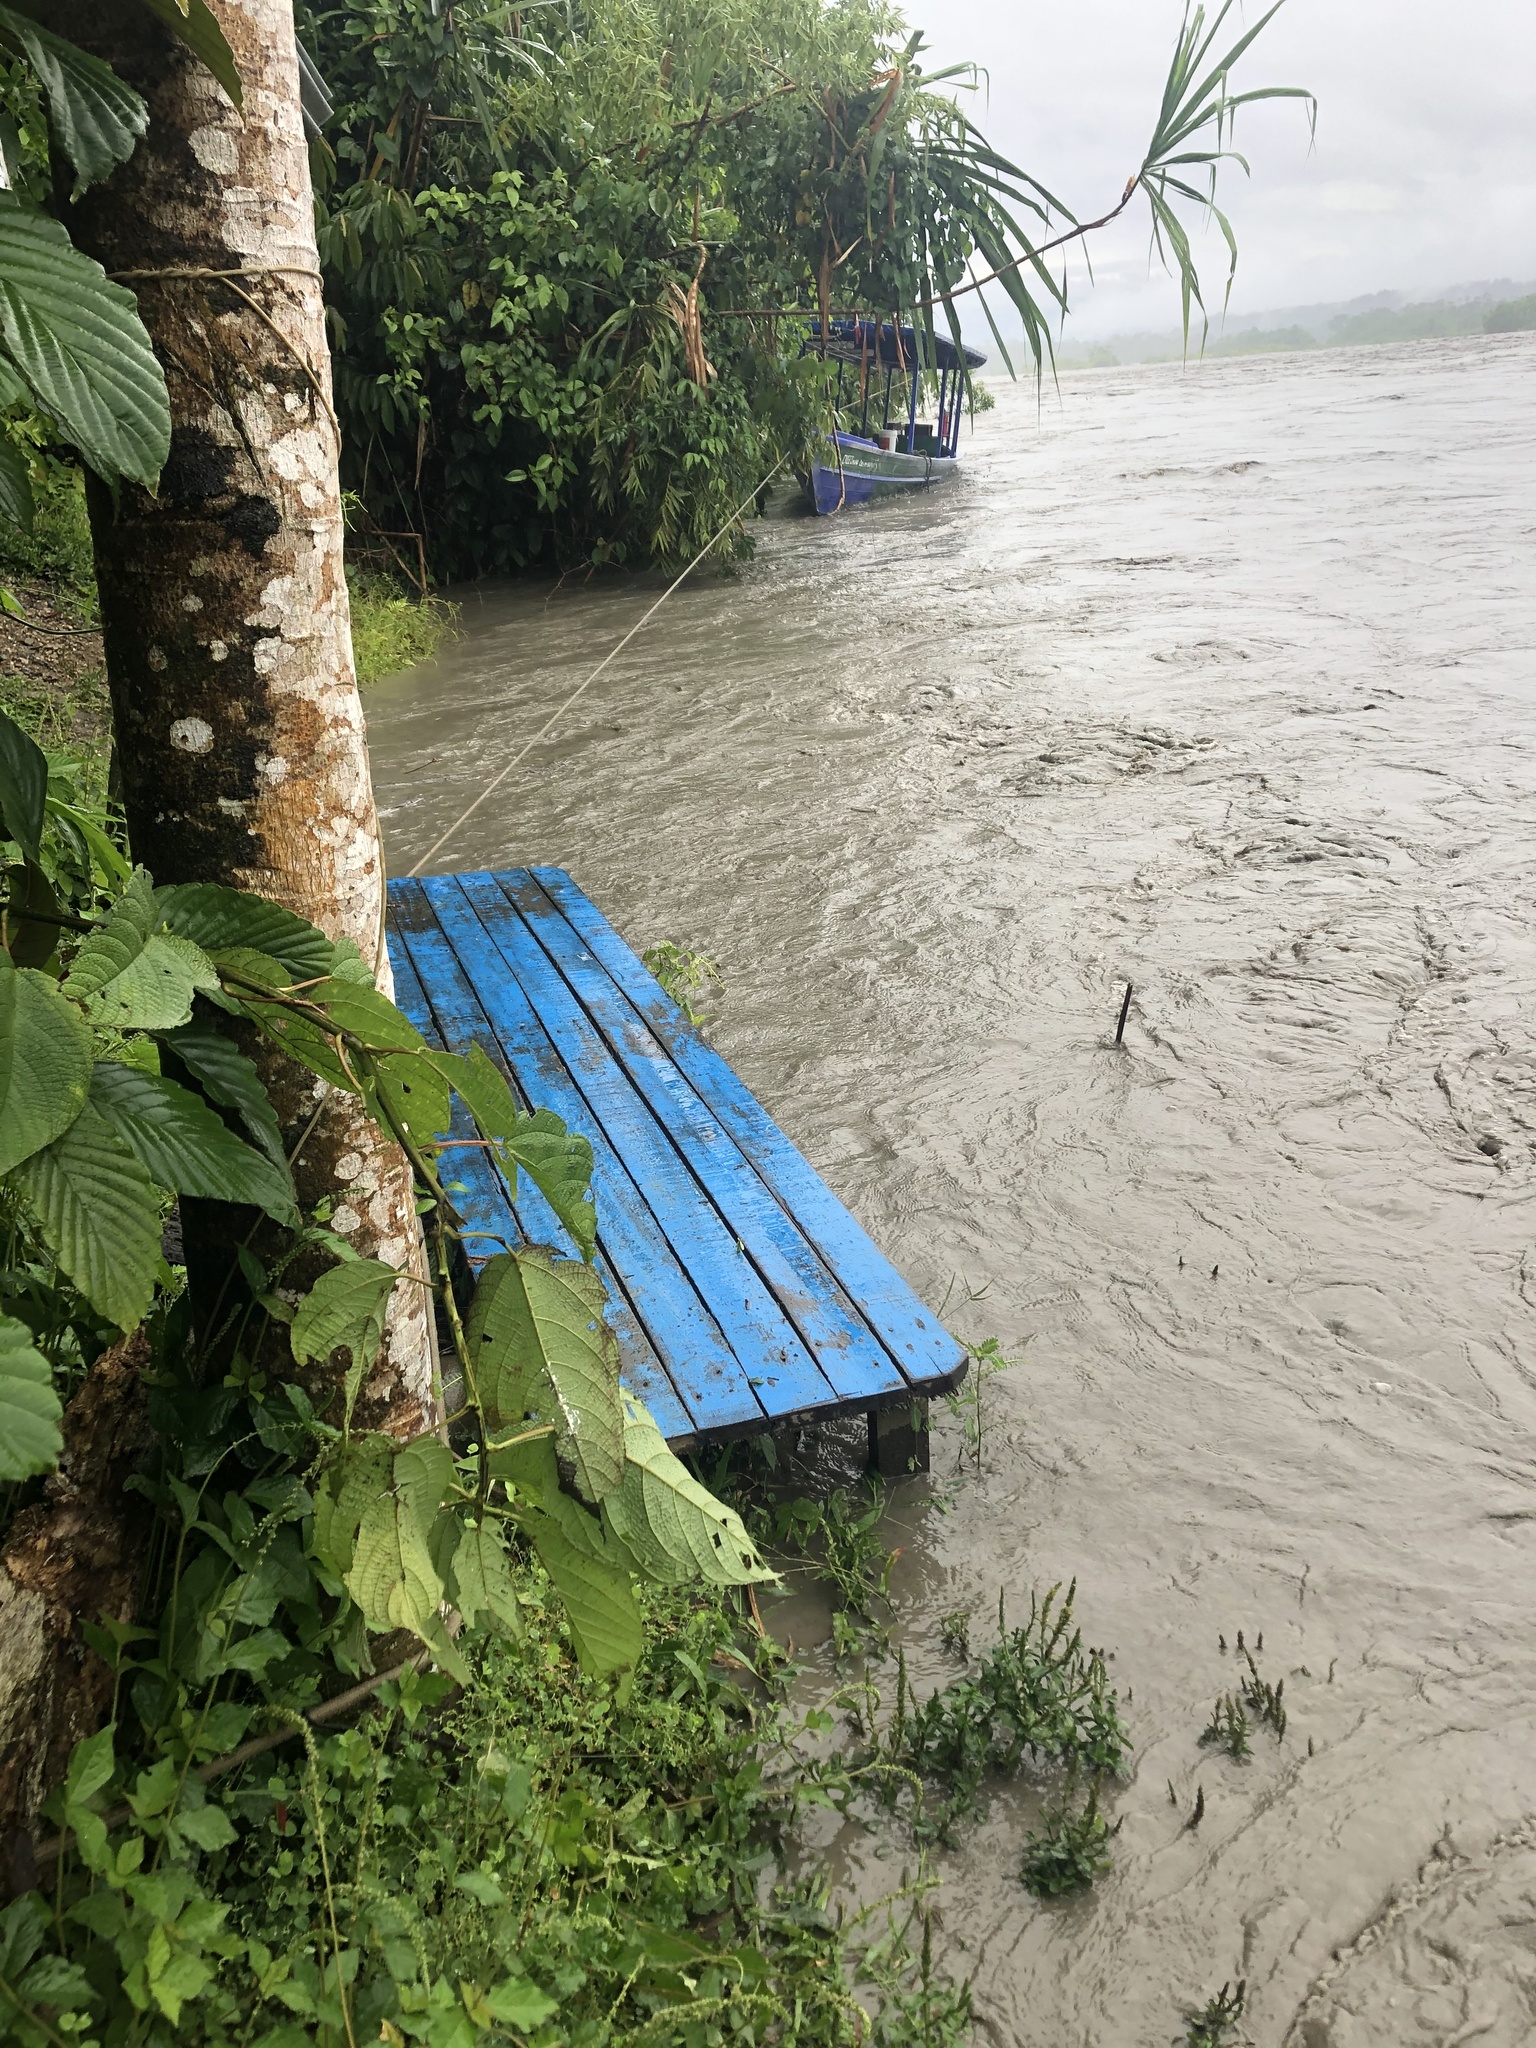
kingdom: Plantae
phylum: Tracheophyta
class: Liliopsida
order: Poales
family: Poaceae
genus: Gynerium
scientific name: Gynerium sagittatum
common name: Wild cane
